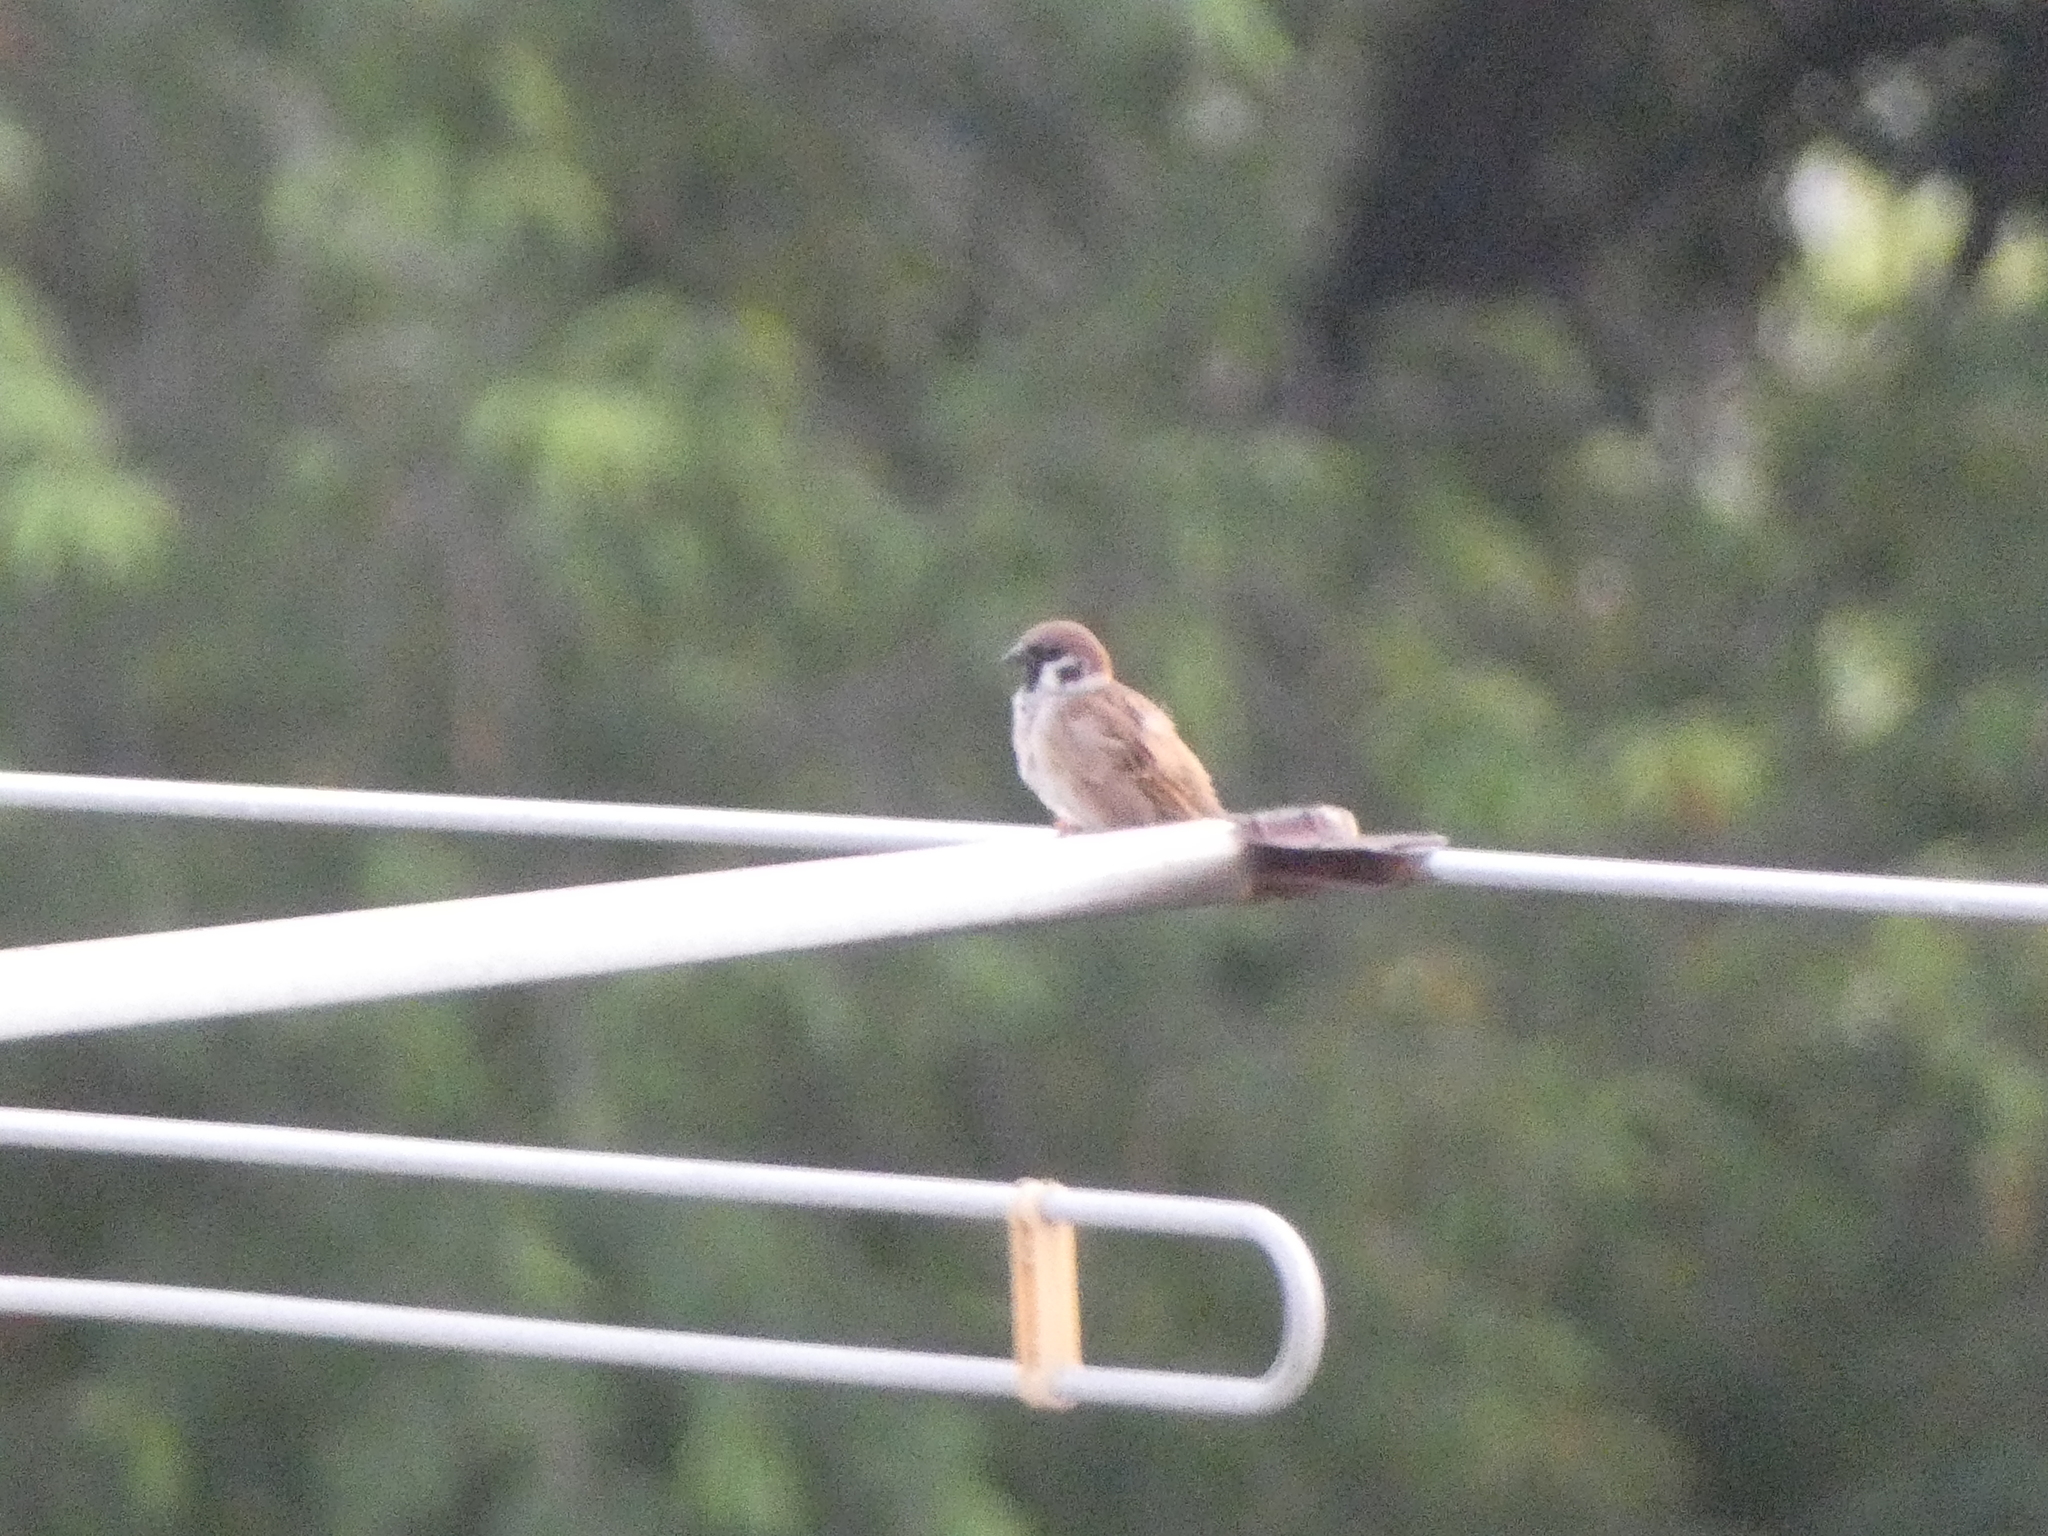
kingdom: Animalia
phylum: Chordata
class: Aves
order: Passeriformes
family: Passeridae
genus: Passer
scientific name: Passer montanus
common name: Eurasian tree sparrow
